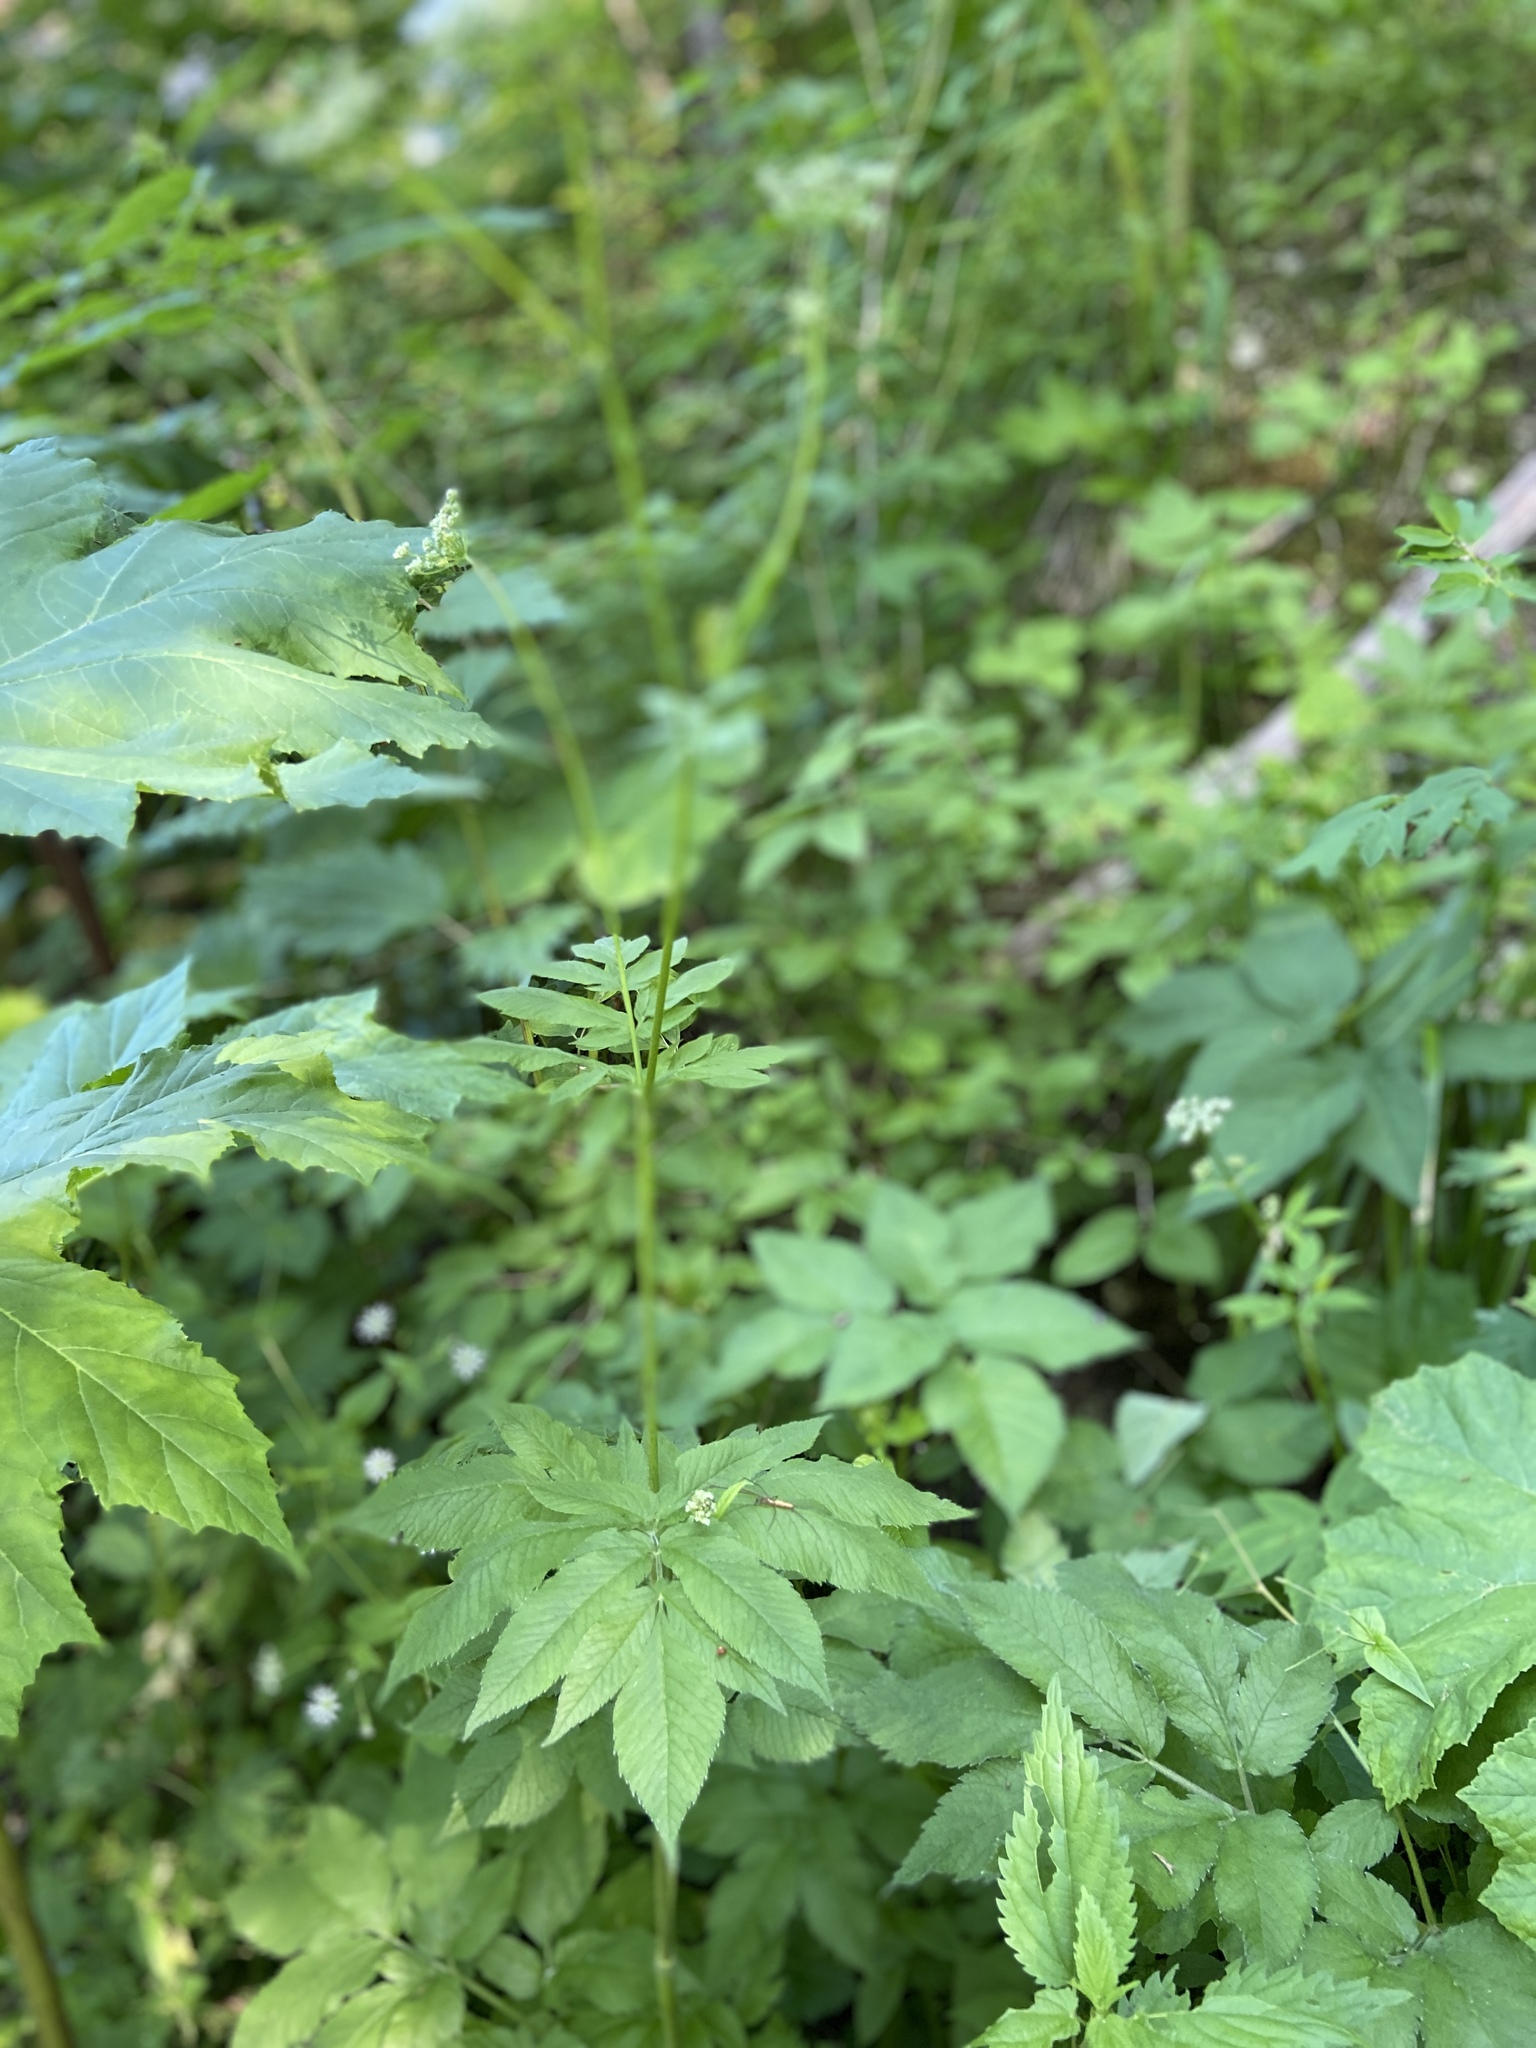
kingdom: Plantae
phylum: Tracheophyta
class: Magnoliopsida
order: Apiales
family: Apiaceae
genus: Chaerophyllum
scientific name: Chaerophyllum aromaticum
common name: Broadleaf chervil
